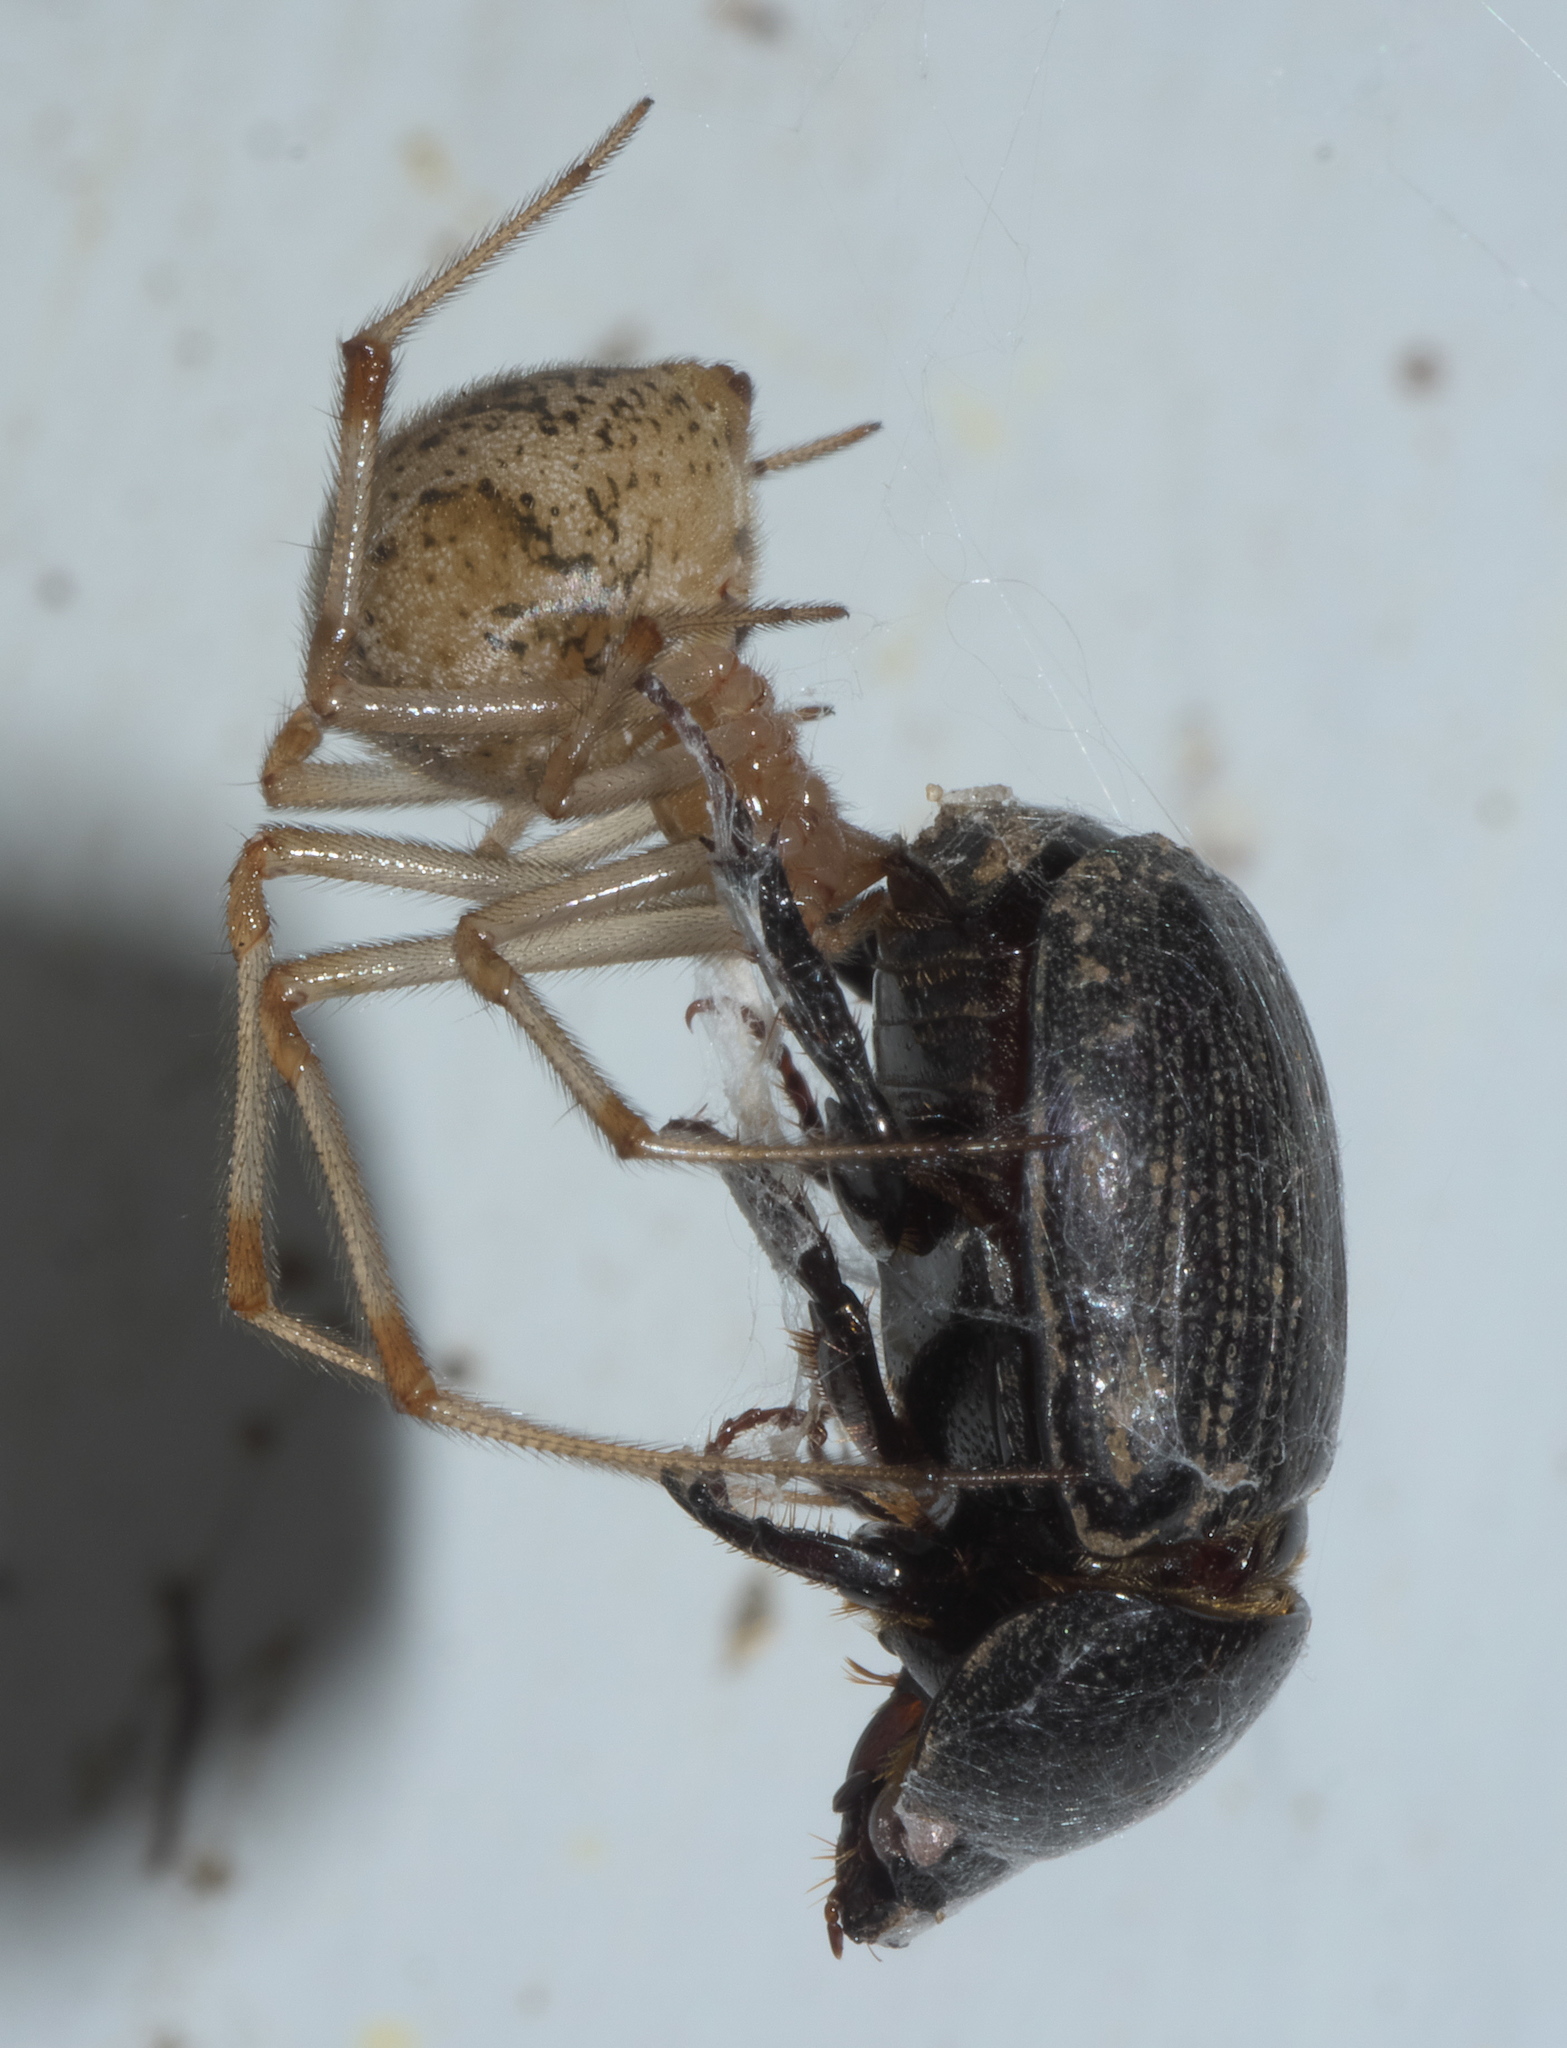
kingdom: Animalia
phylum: Arthropoda
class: Arachnida
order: Araneae
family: Theridiidae
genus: Parasteatoda
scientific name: Parasteatoda tepidariorum
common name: Common house spider
